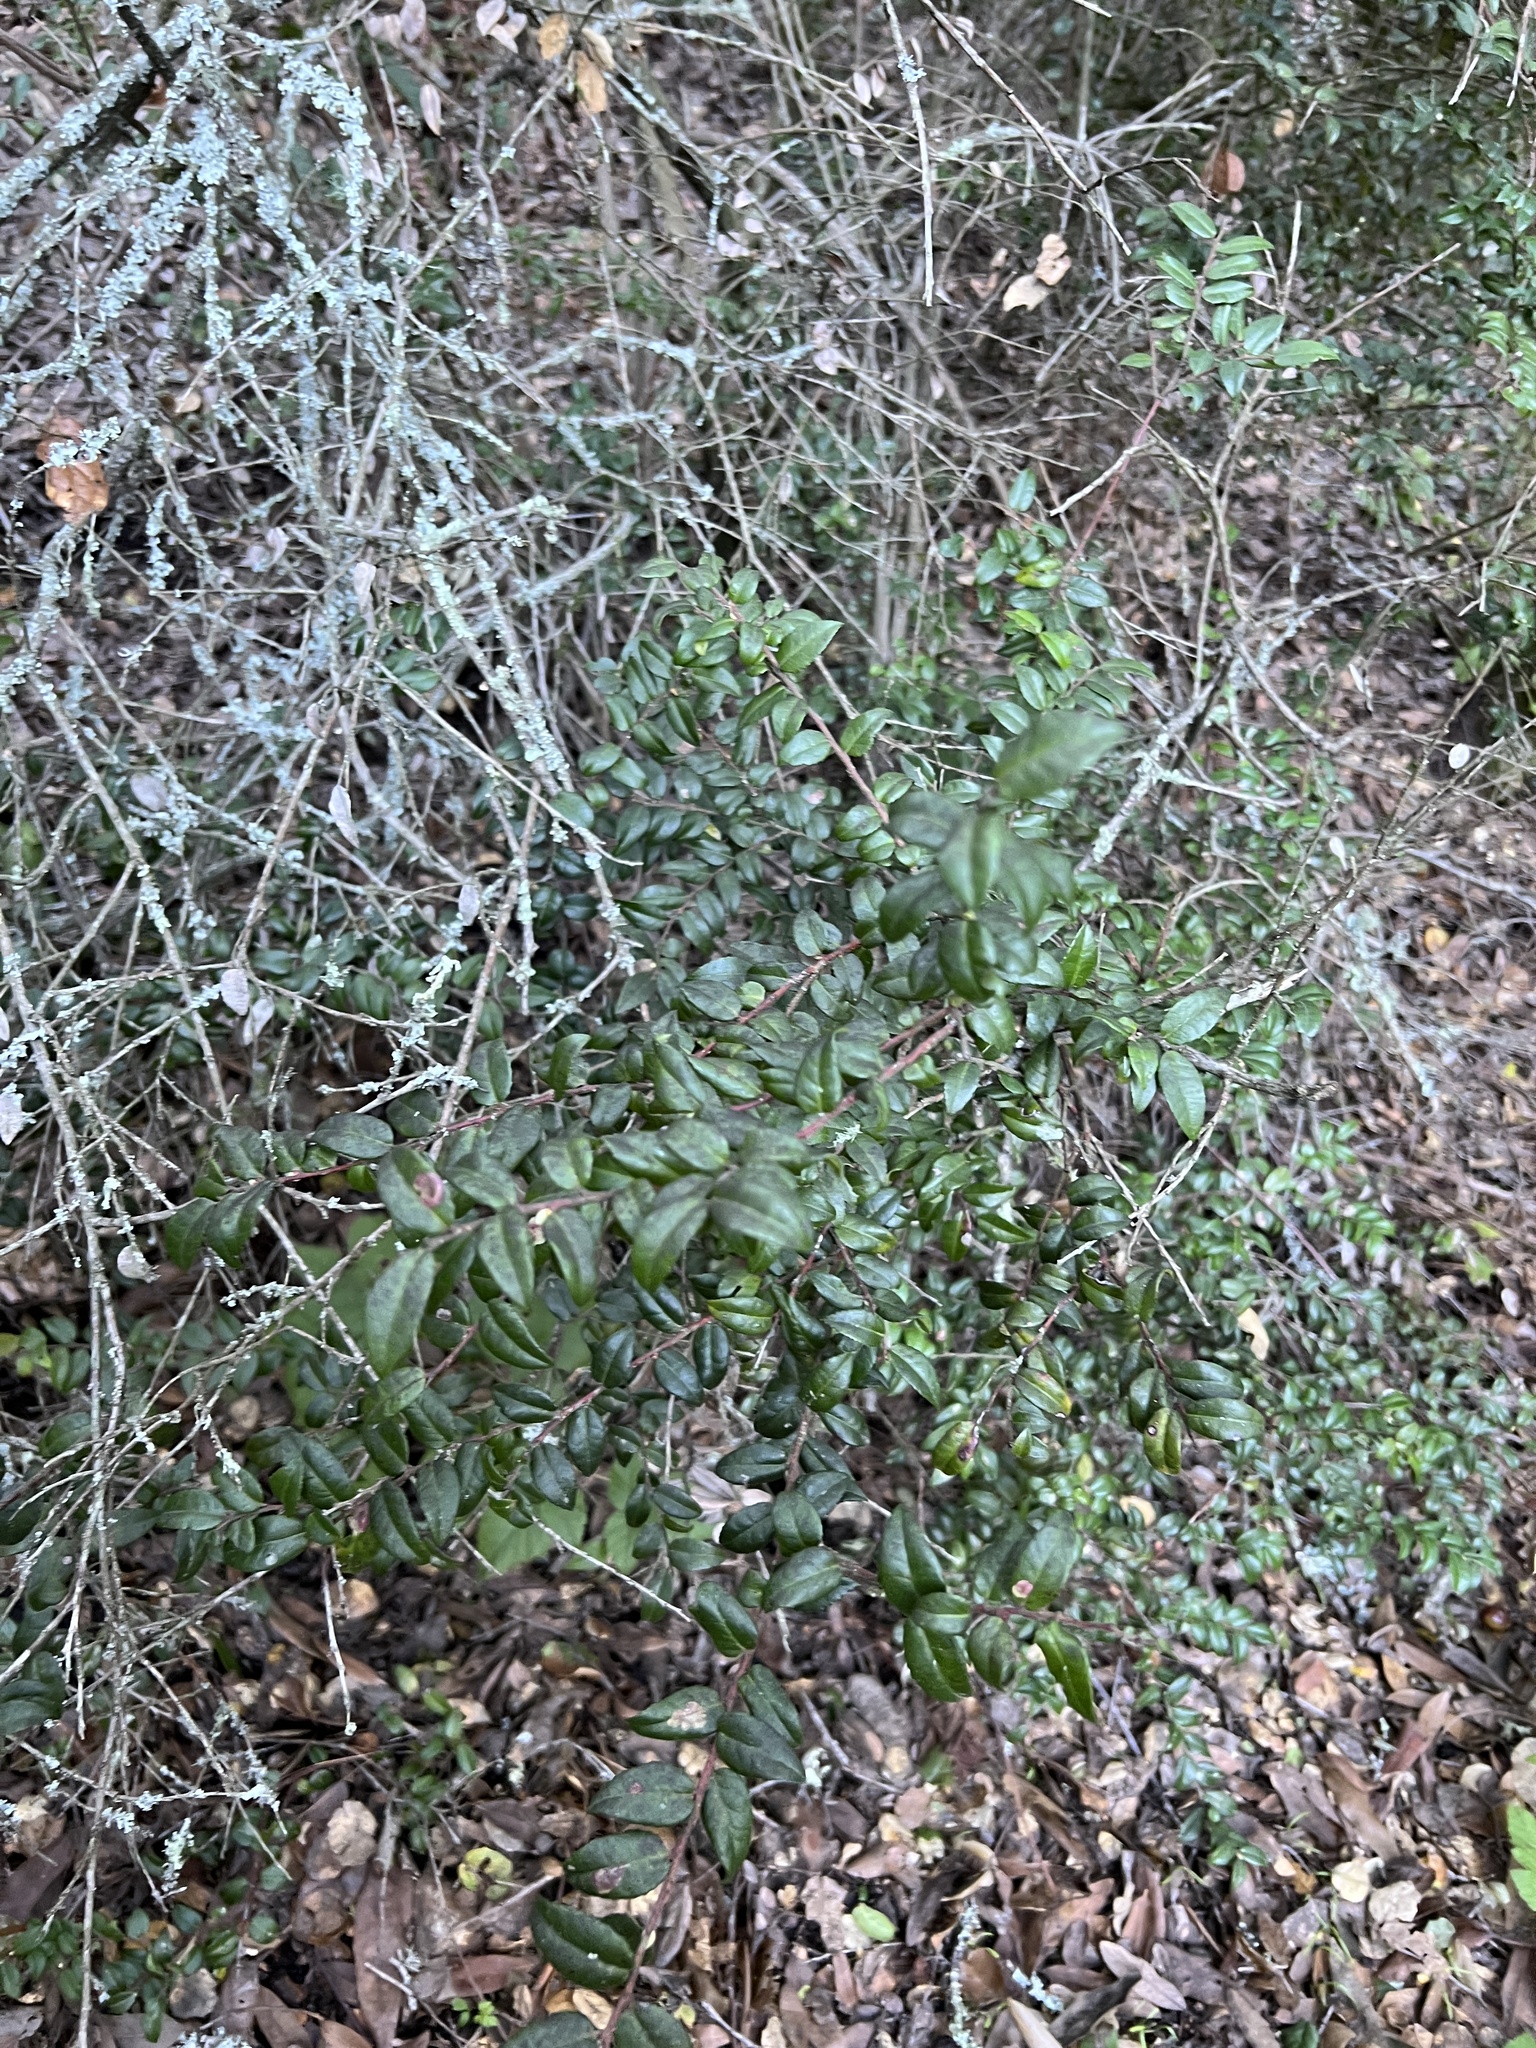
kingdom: Plantae
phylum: Tracheophyta
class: Magnoliopsida
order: Ericales
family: Ericaceae
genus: Vaccinium
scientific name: Vaccinium ovatum
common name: California-huckleberry
